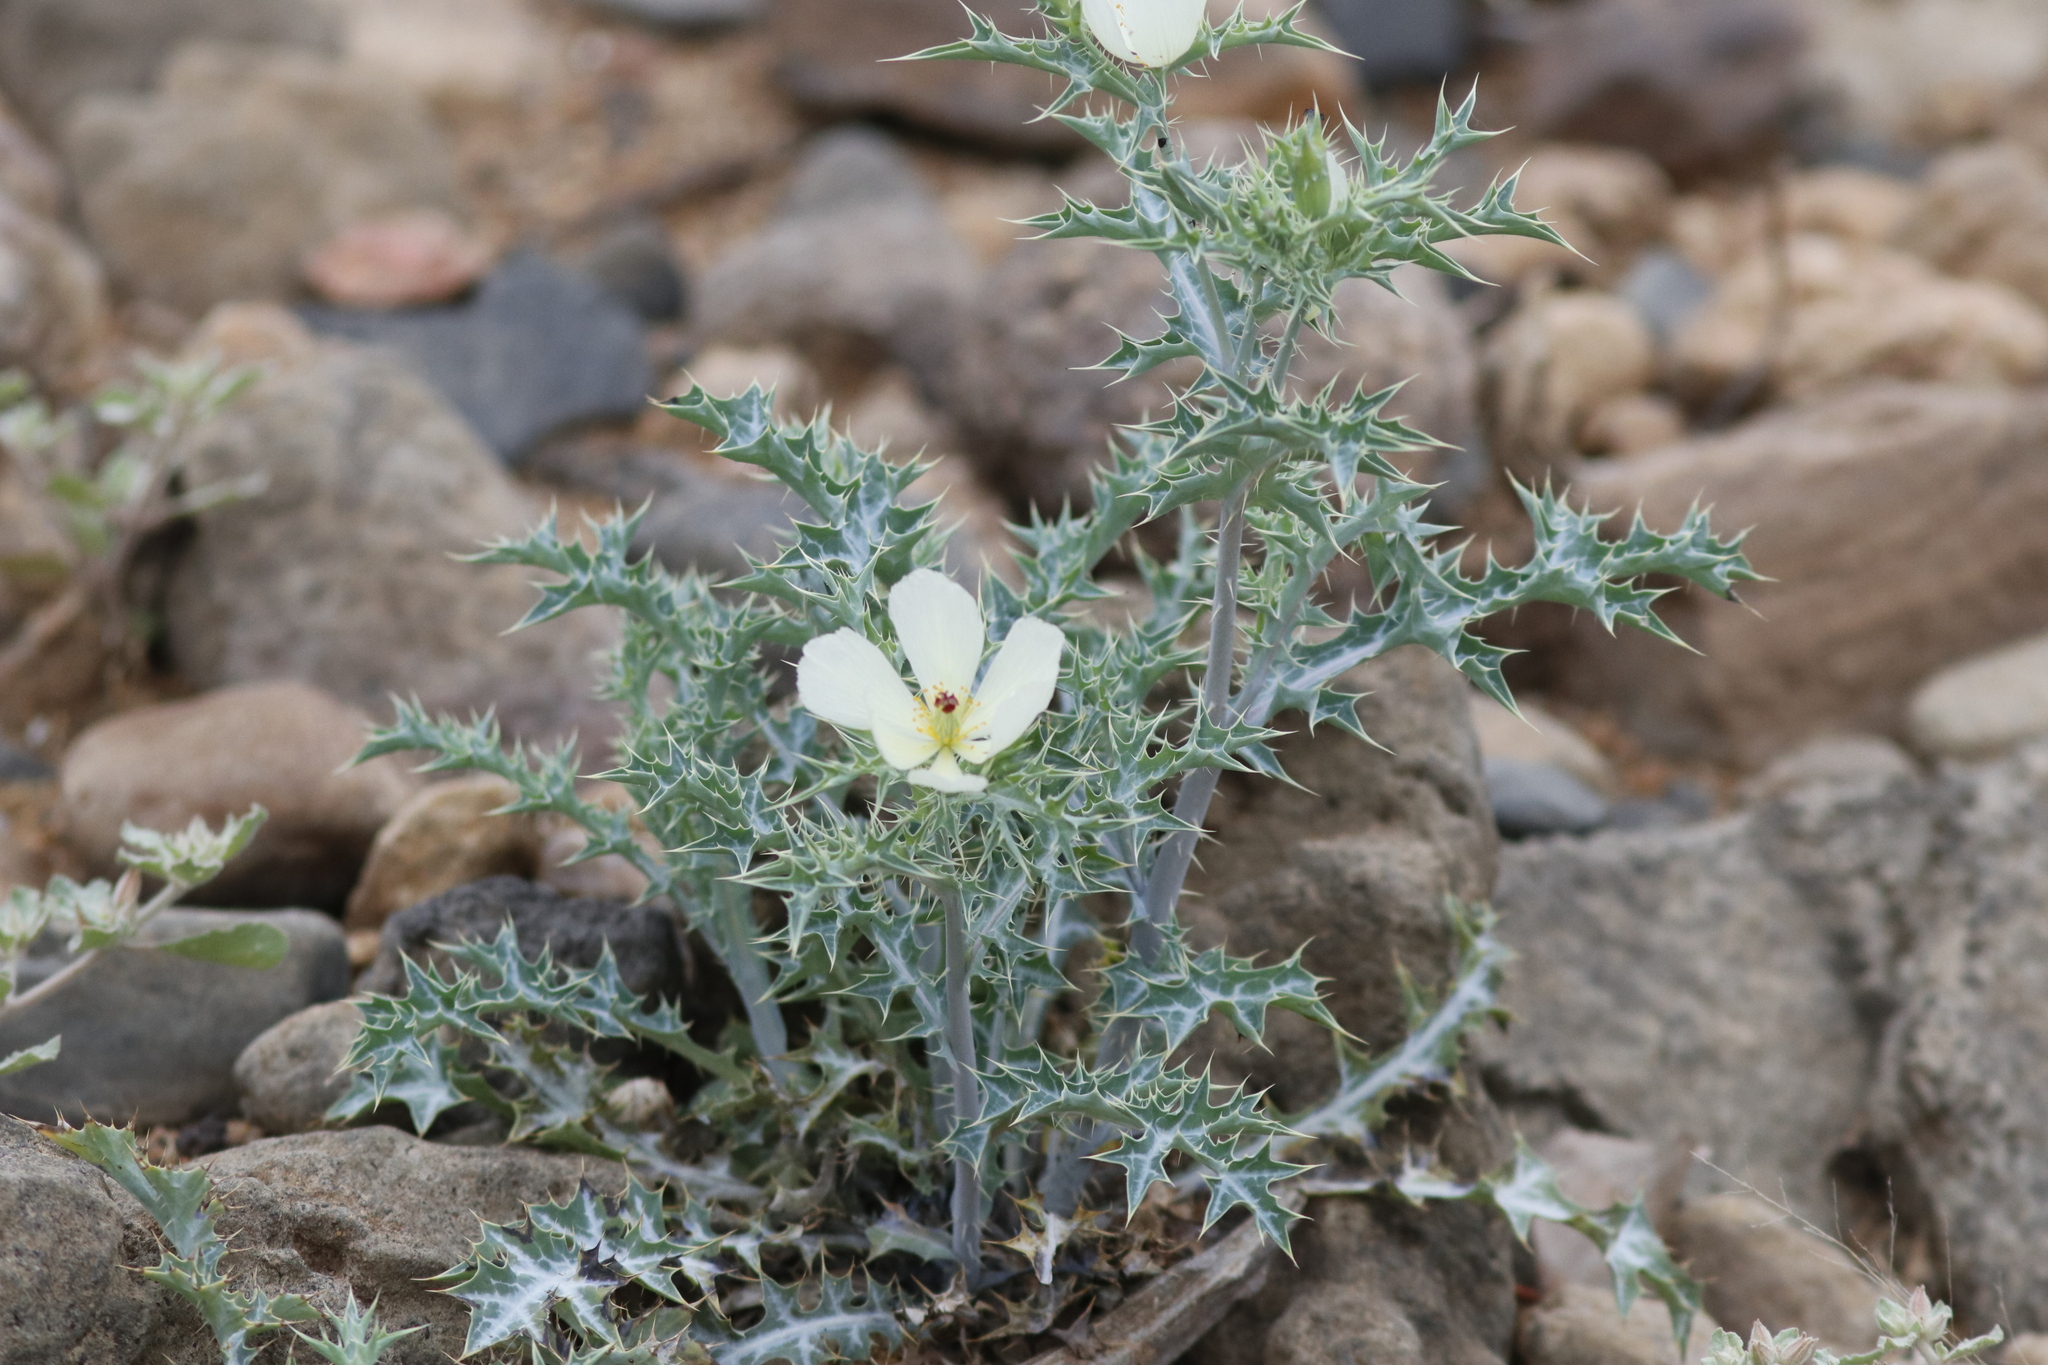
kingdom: Plantae
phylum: Tracheophyta
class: Magnoliopsida
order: Ranunculales
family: Papaveraceae
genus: Argemone
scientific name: Argemone ochroleuca
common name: White-flower mexican-poppy
